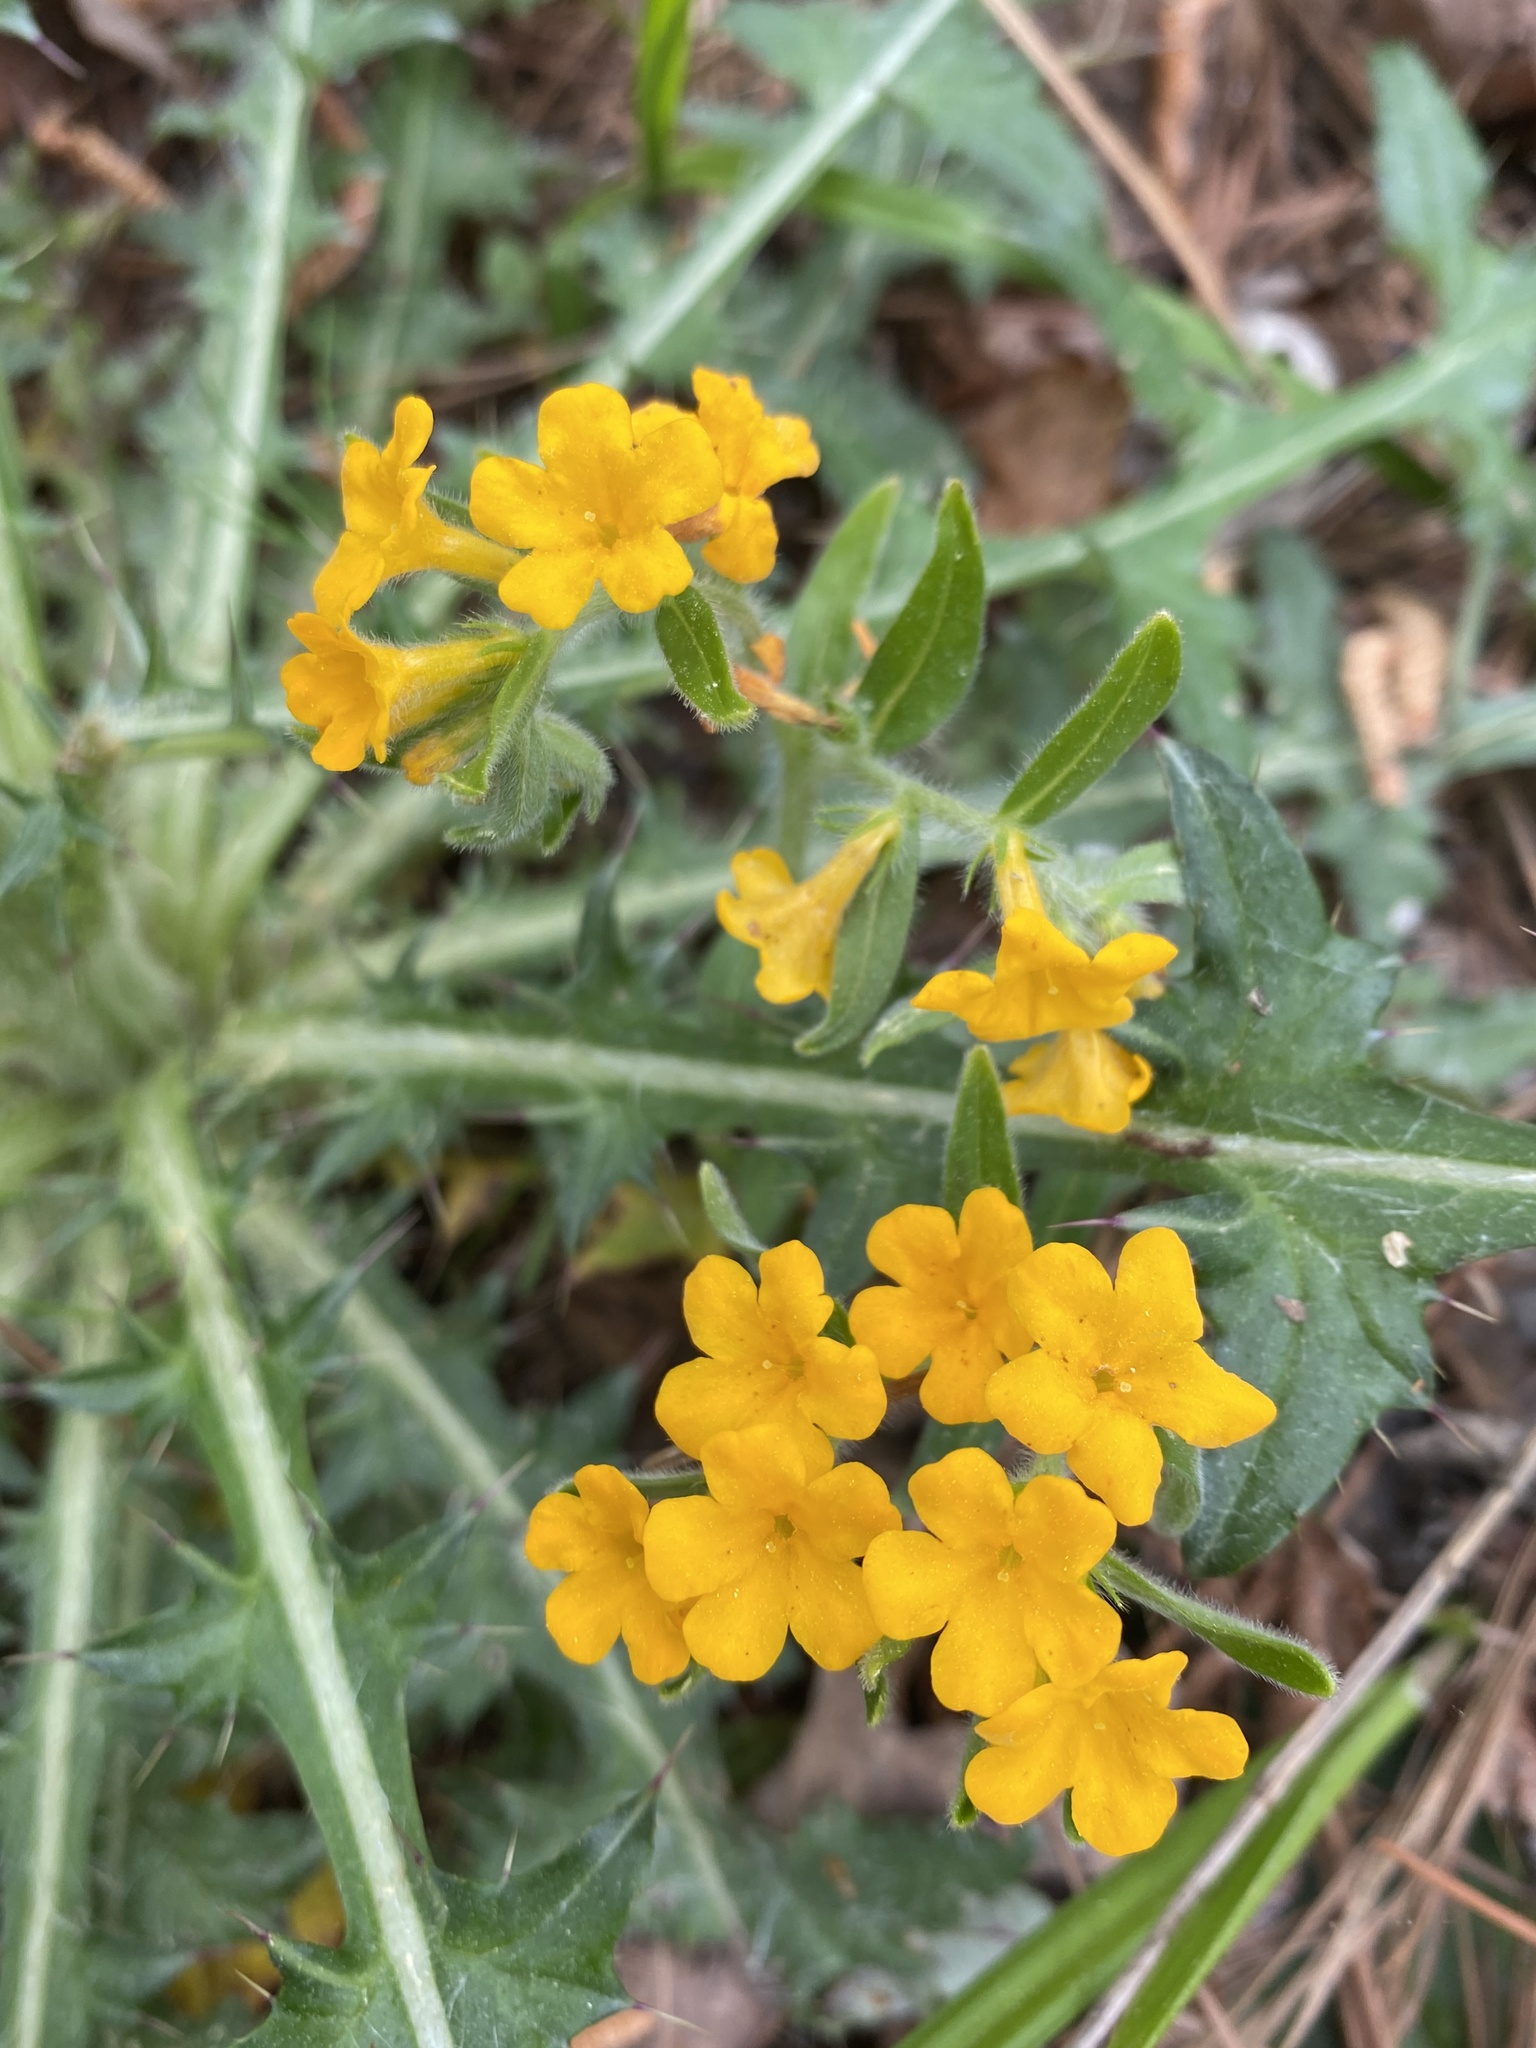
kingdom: Plantae
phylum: Tracheophyta
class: Magnoliopsida
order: Boraginales
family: Boraginaceae
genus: Lithospermum
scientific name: Lithospermum canescens
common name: Hoary puccoon
